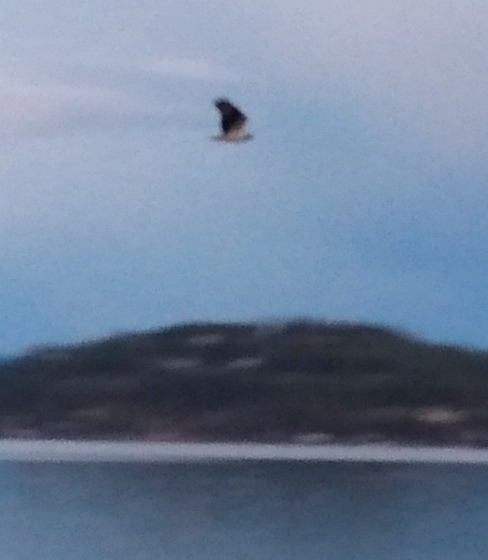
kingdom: Animalia
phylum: Chordata
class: Aves
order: Accipitriformes
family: Pandionidae
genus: Pandion
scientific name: Pandion haliaetus
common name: Osprey
